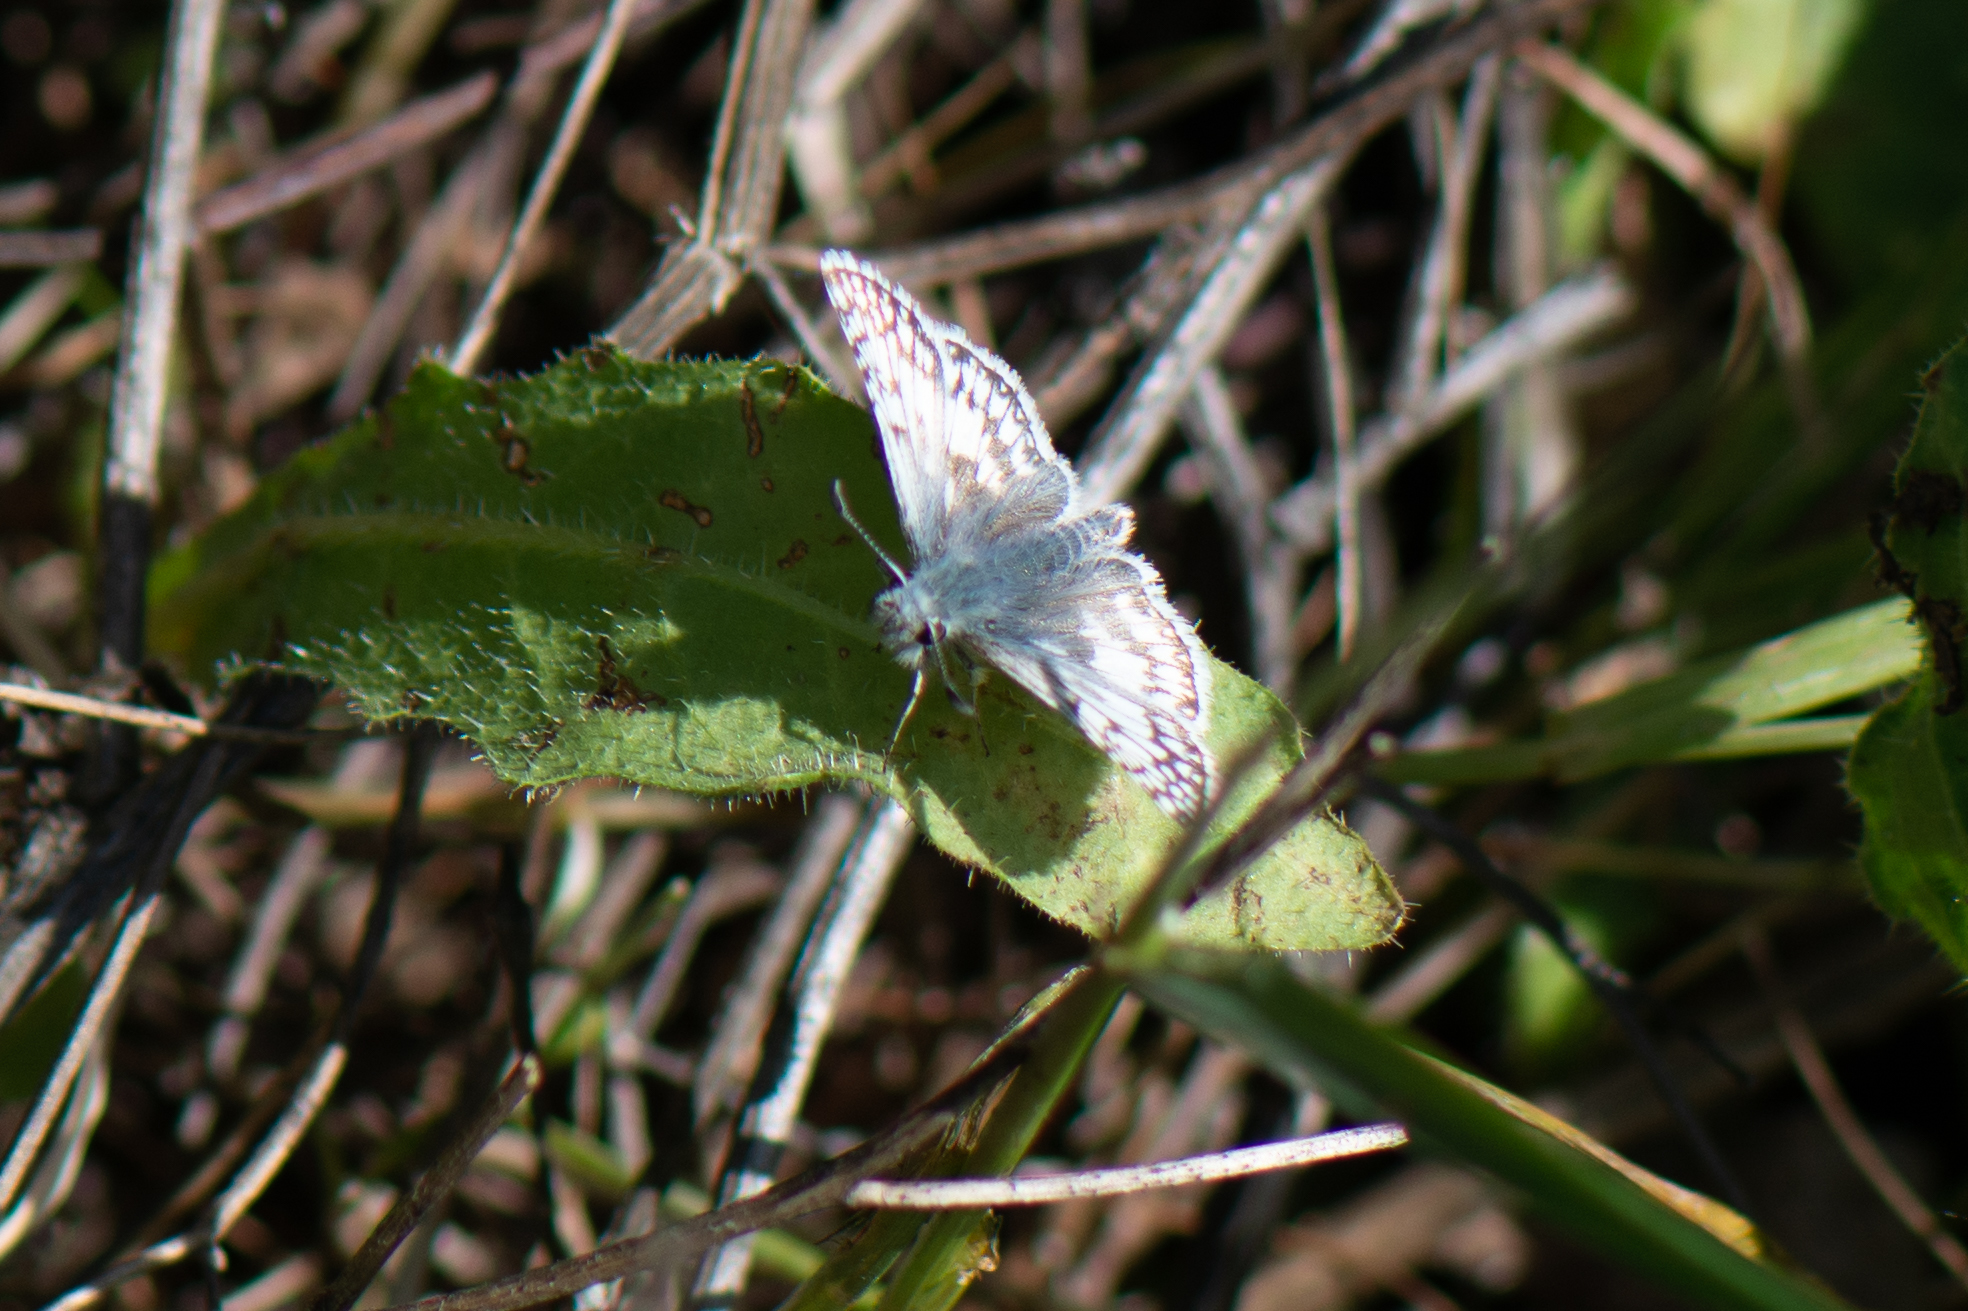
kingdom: Animalia
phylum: Arthropoda
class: Insecta
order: Lepidoptera
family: Hesperiidae
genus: Burnsius
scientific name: Burnsius communis
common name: Common checkered-skipper
